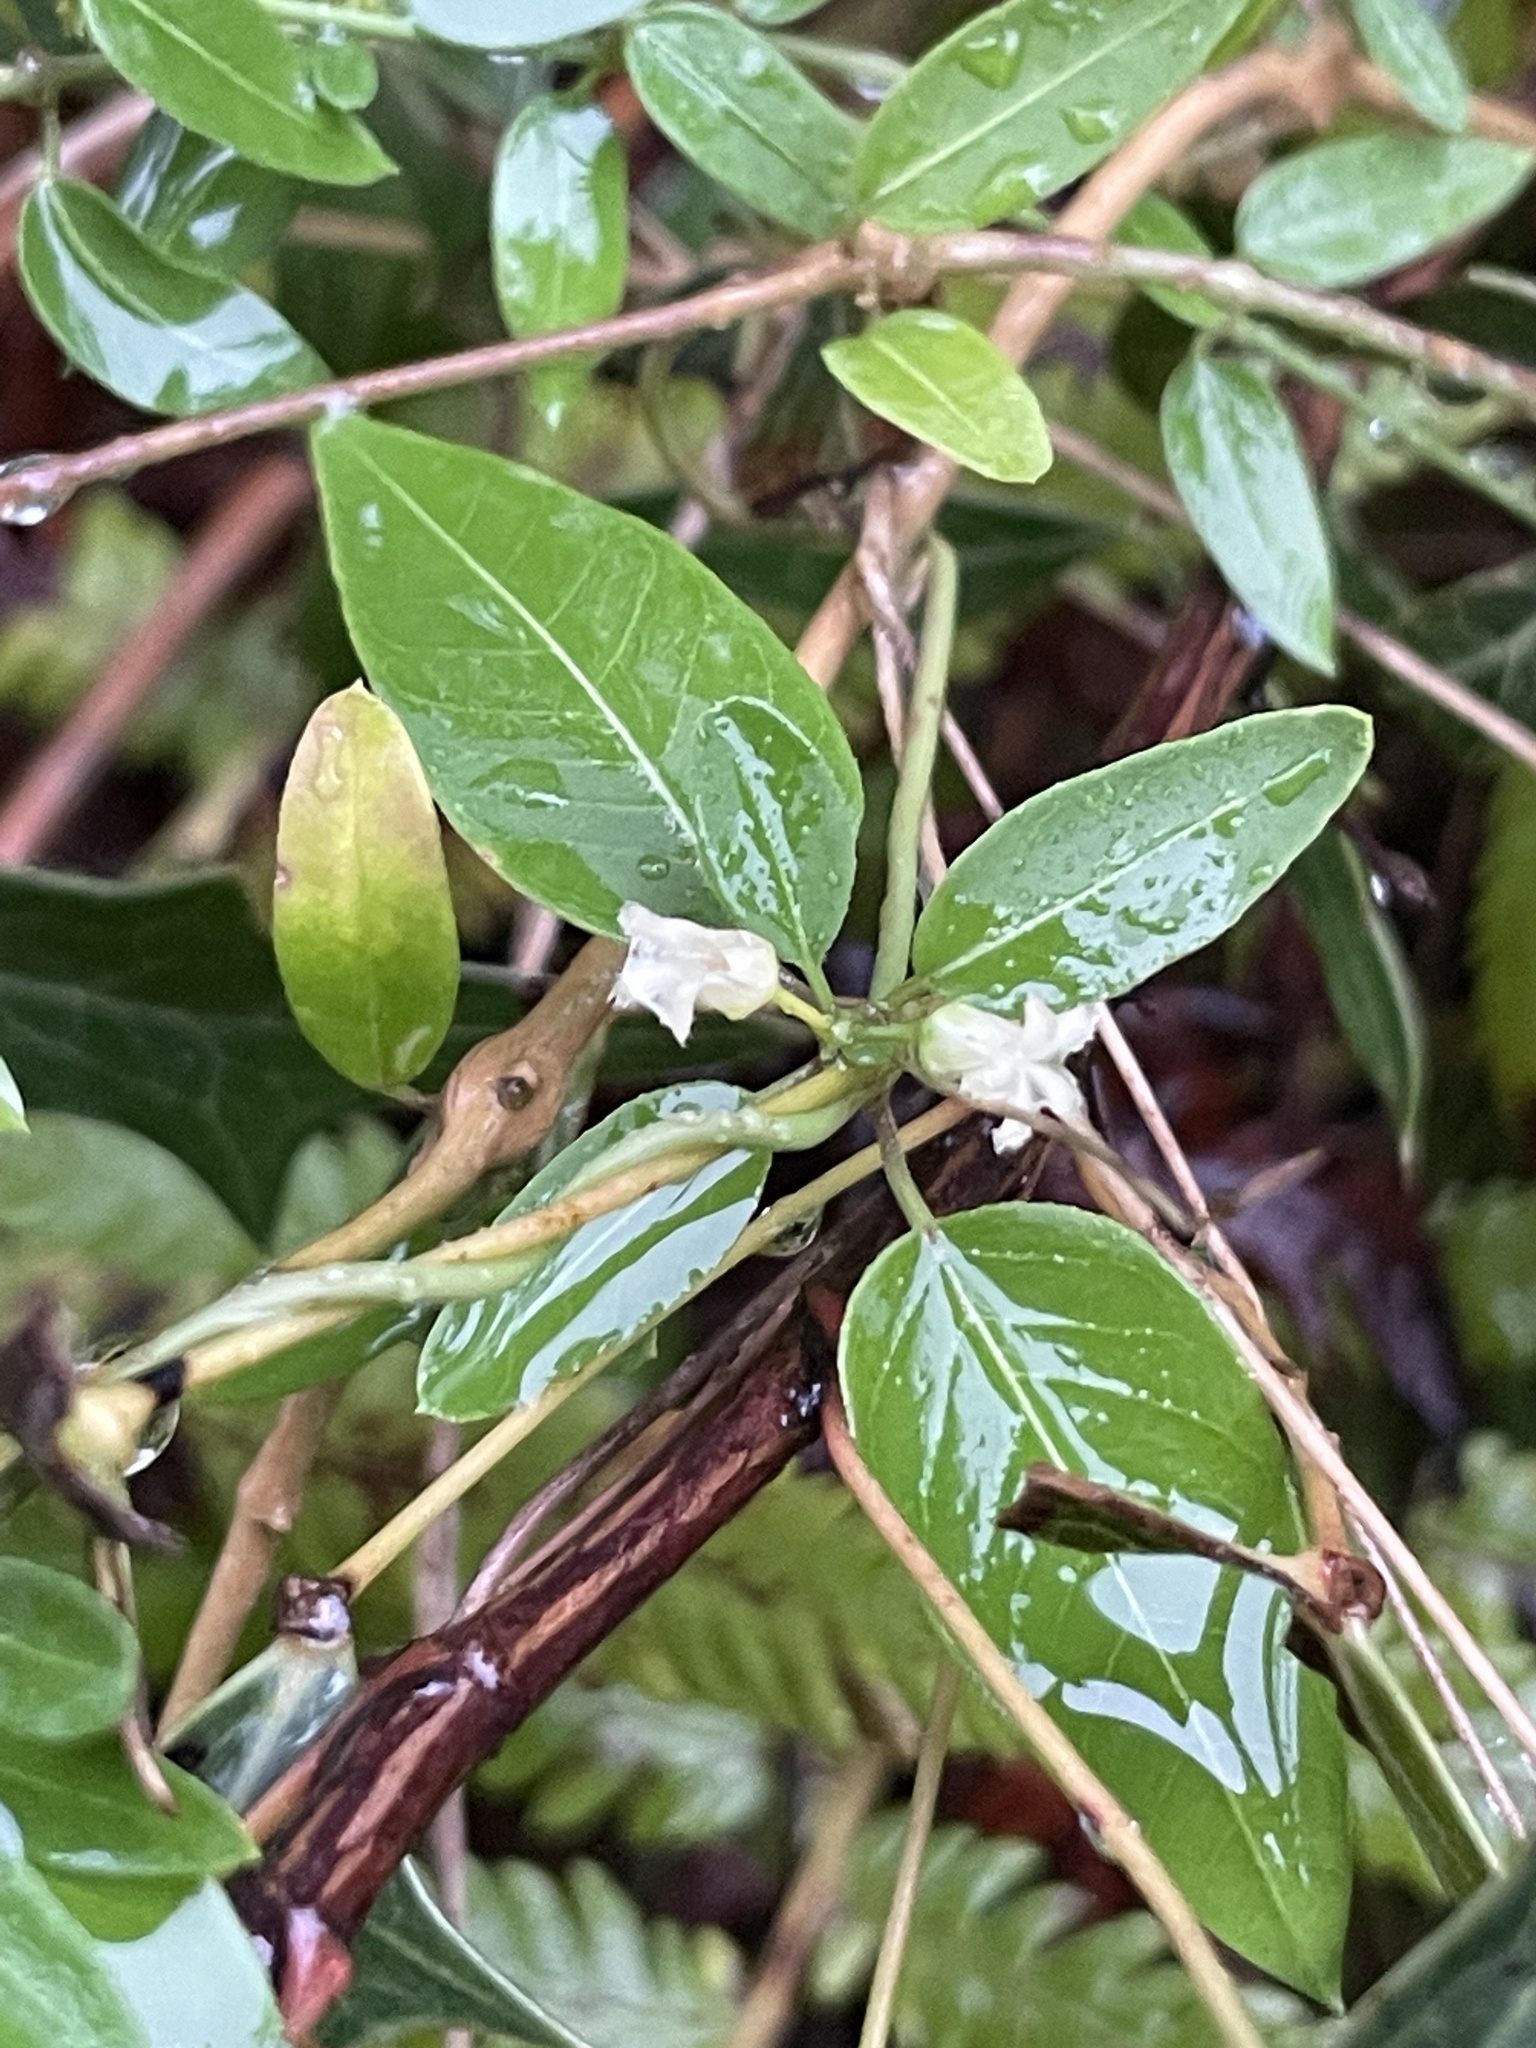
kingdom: Plantae
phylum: Tracheophyta
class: Magnoliopsida
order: Gentianales
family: Apocynaceae
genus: Metastelma
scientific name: Metastelma barbigerum
